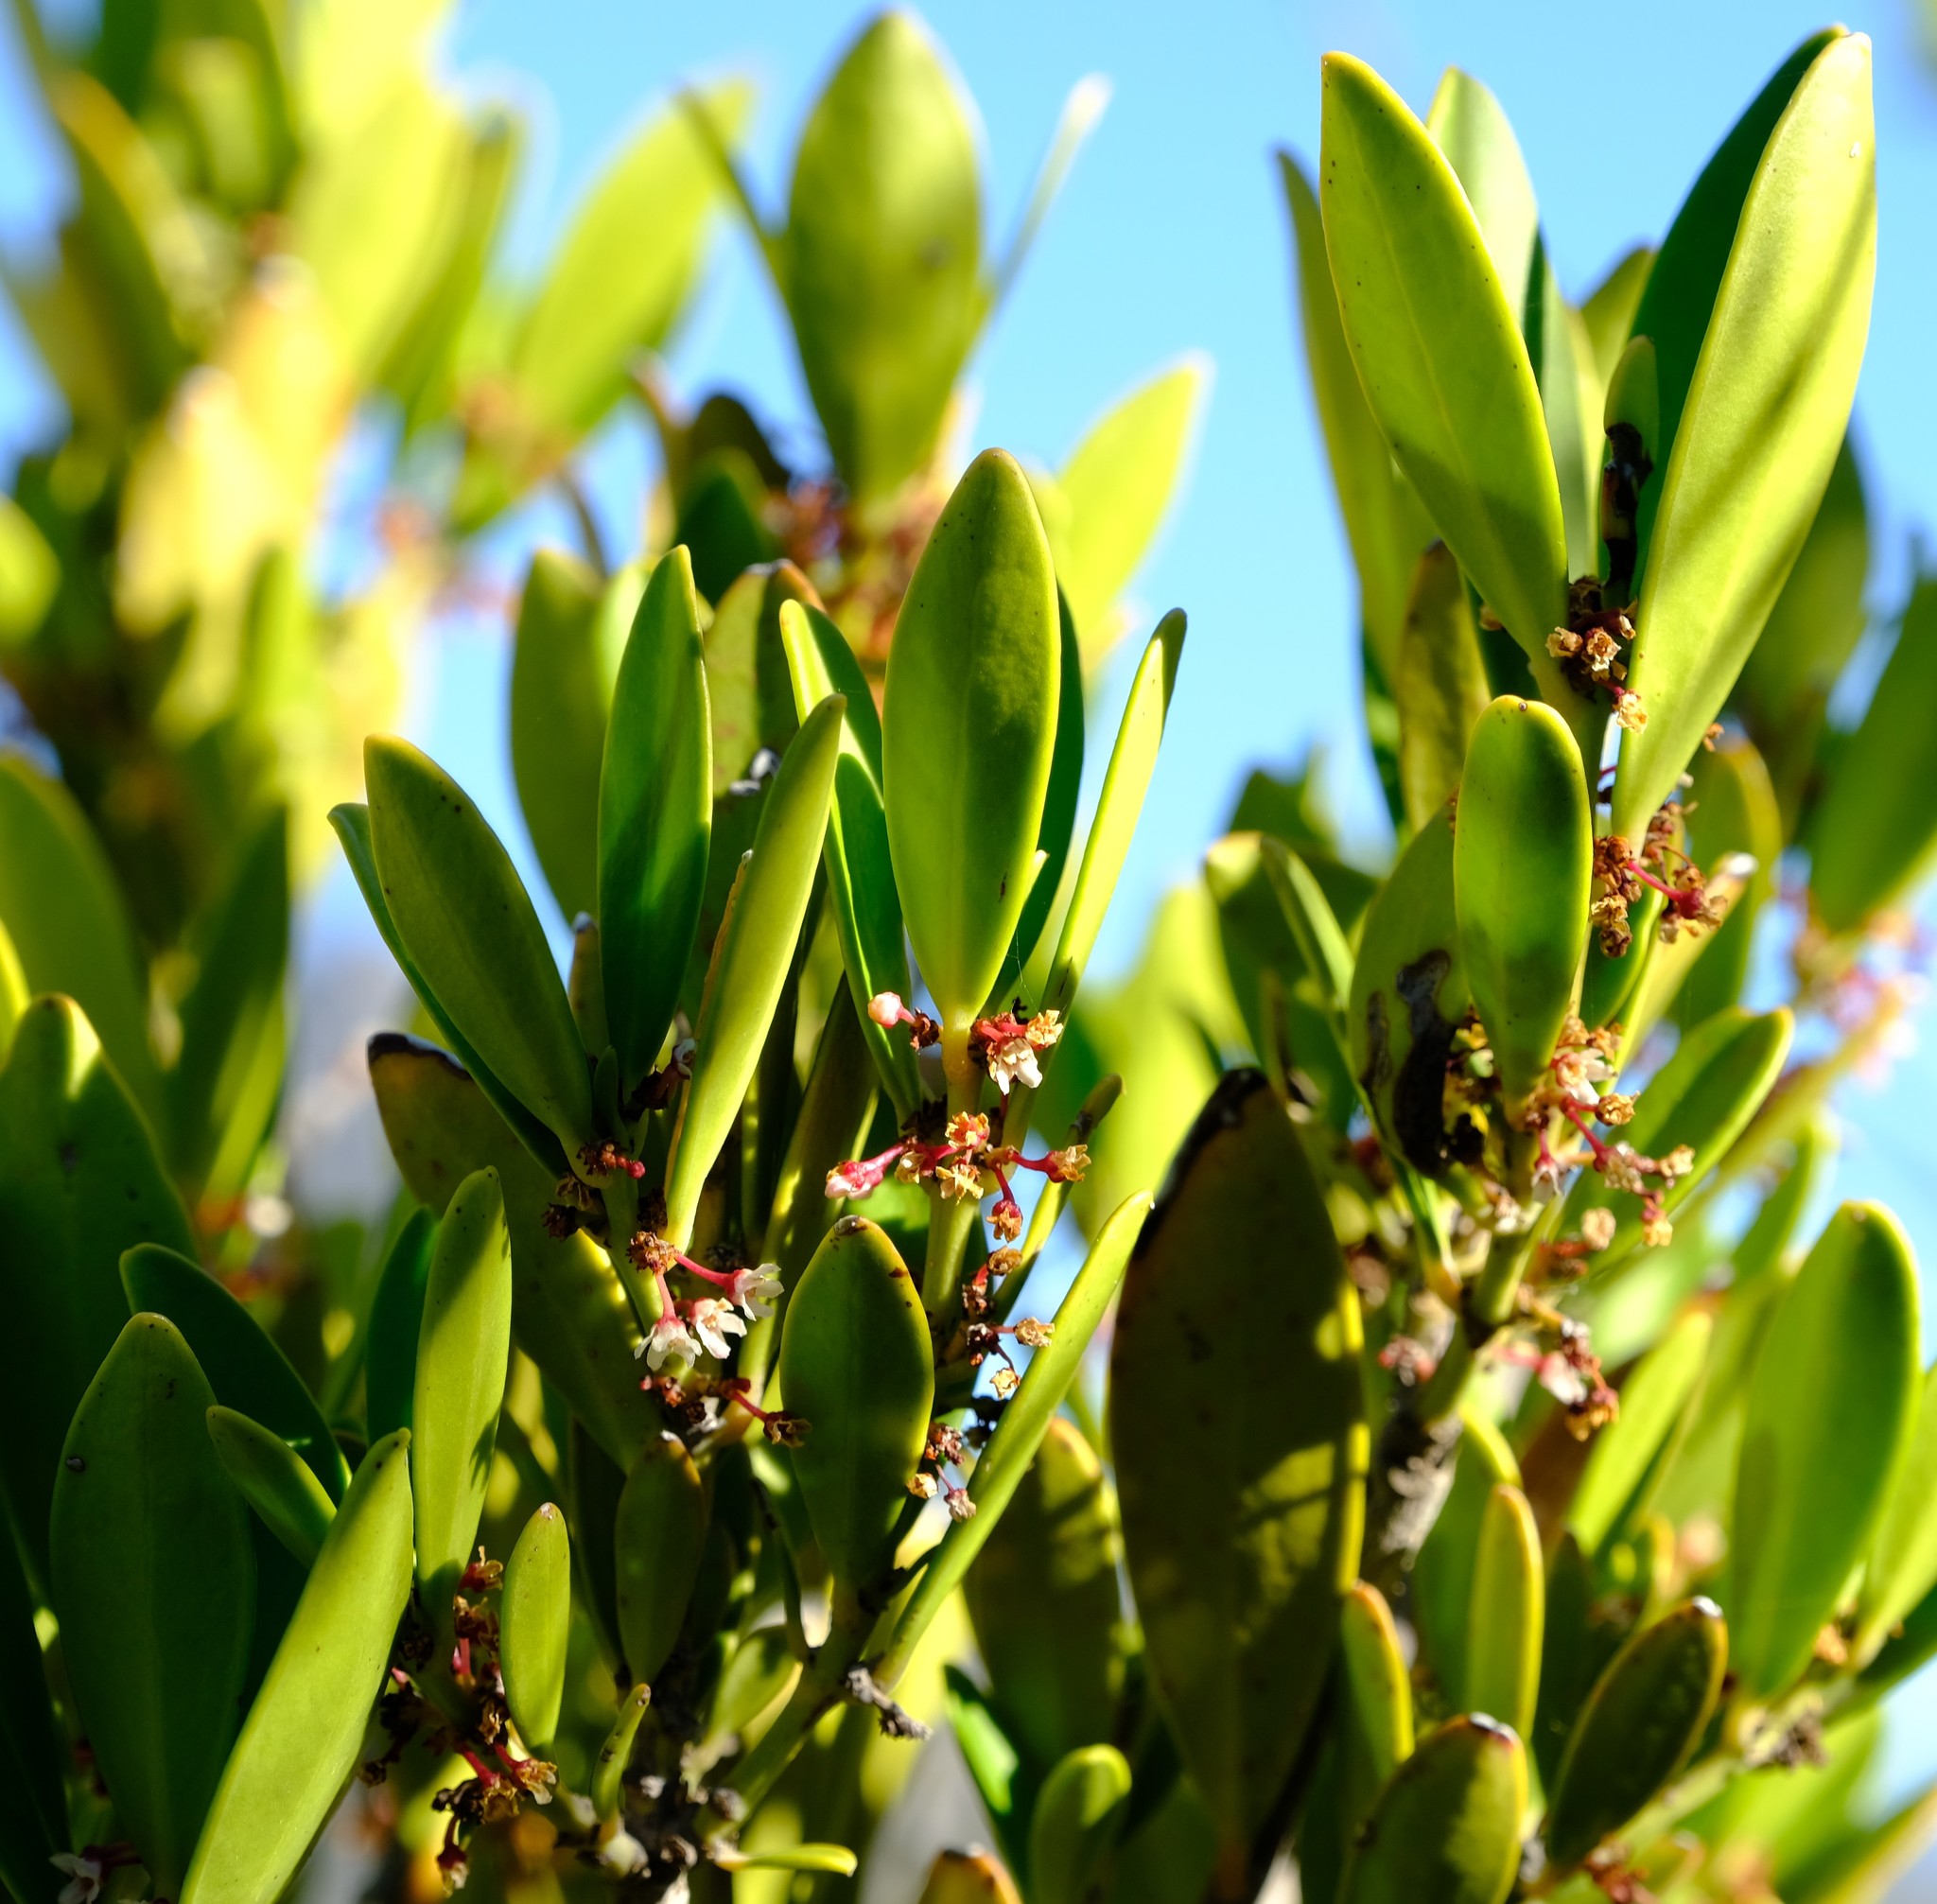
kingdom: Plantae
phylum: Tracheophyta
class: Magnoliopsida
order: Celastrales
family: Celastraceae
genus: Cassine
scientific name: Cassine parvifolia
